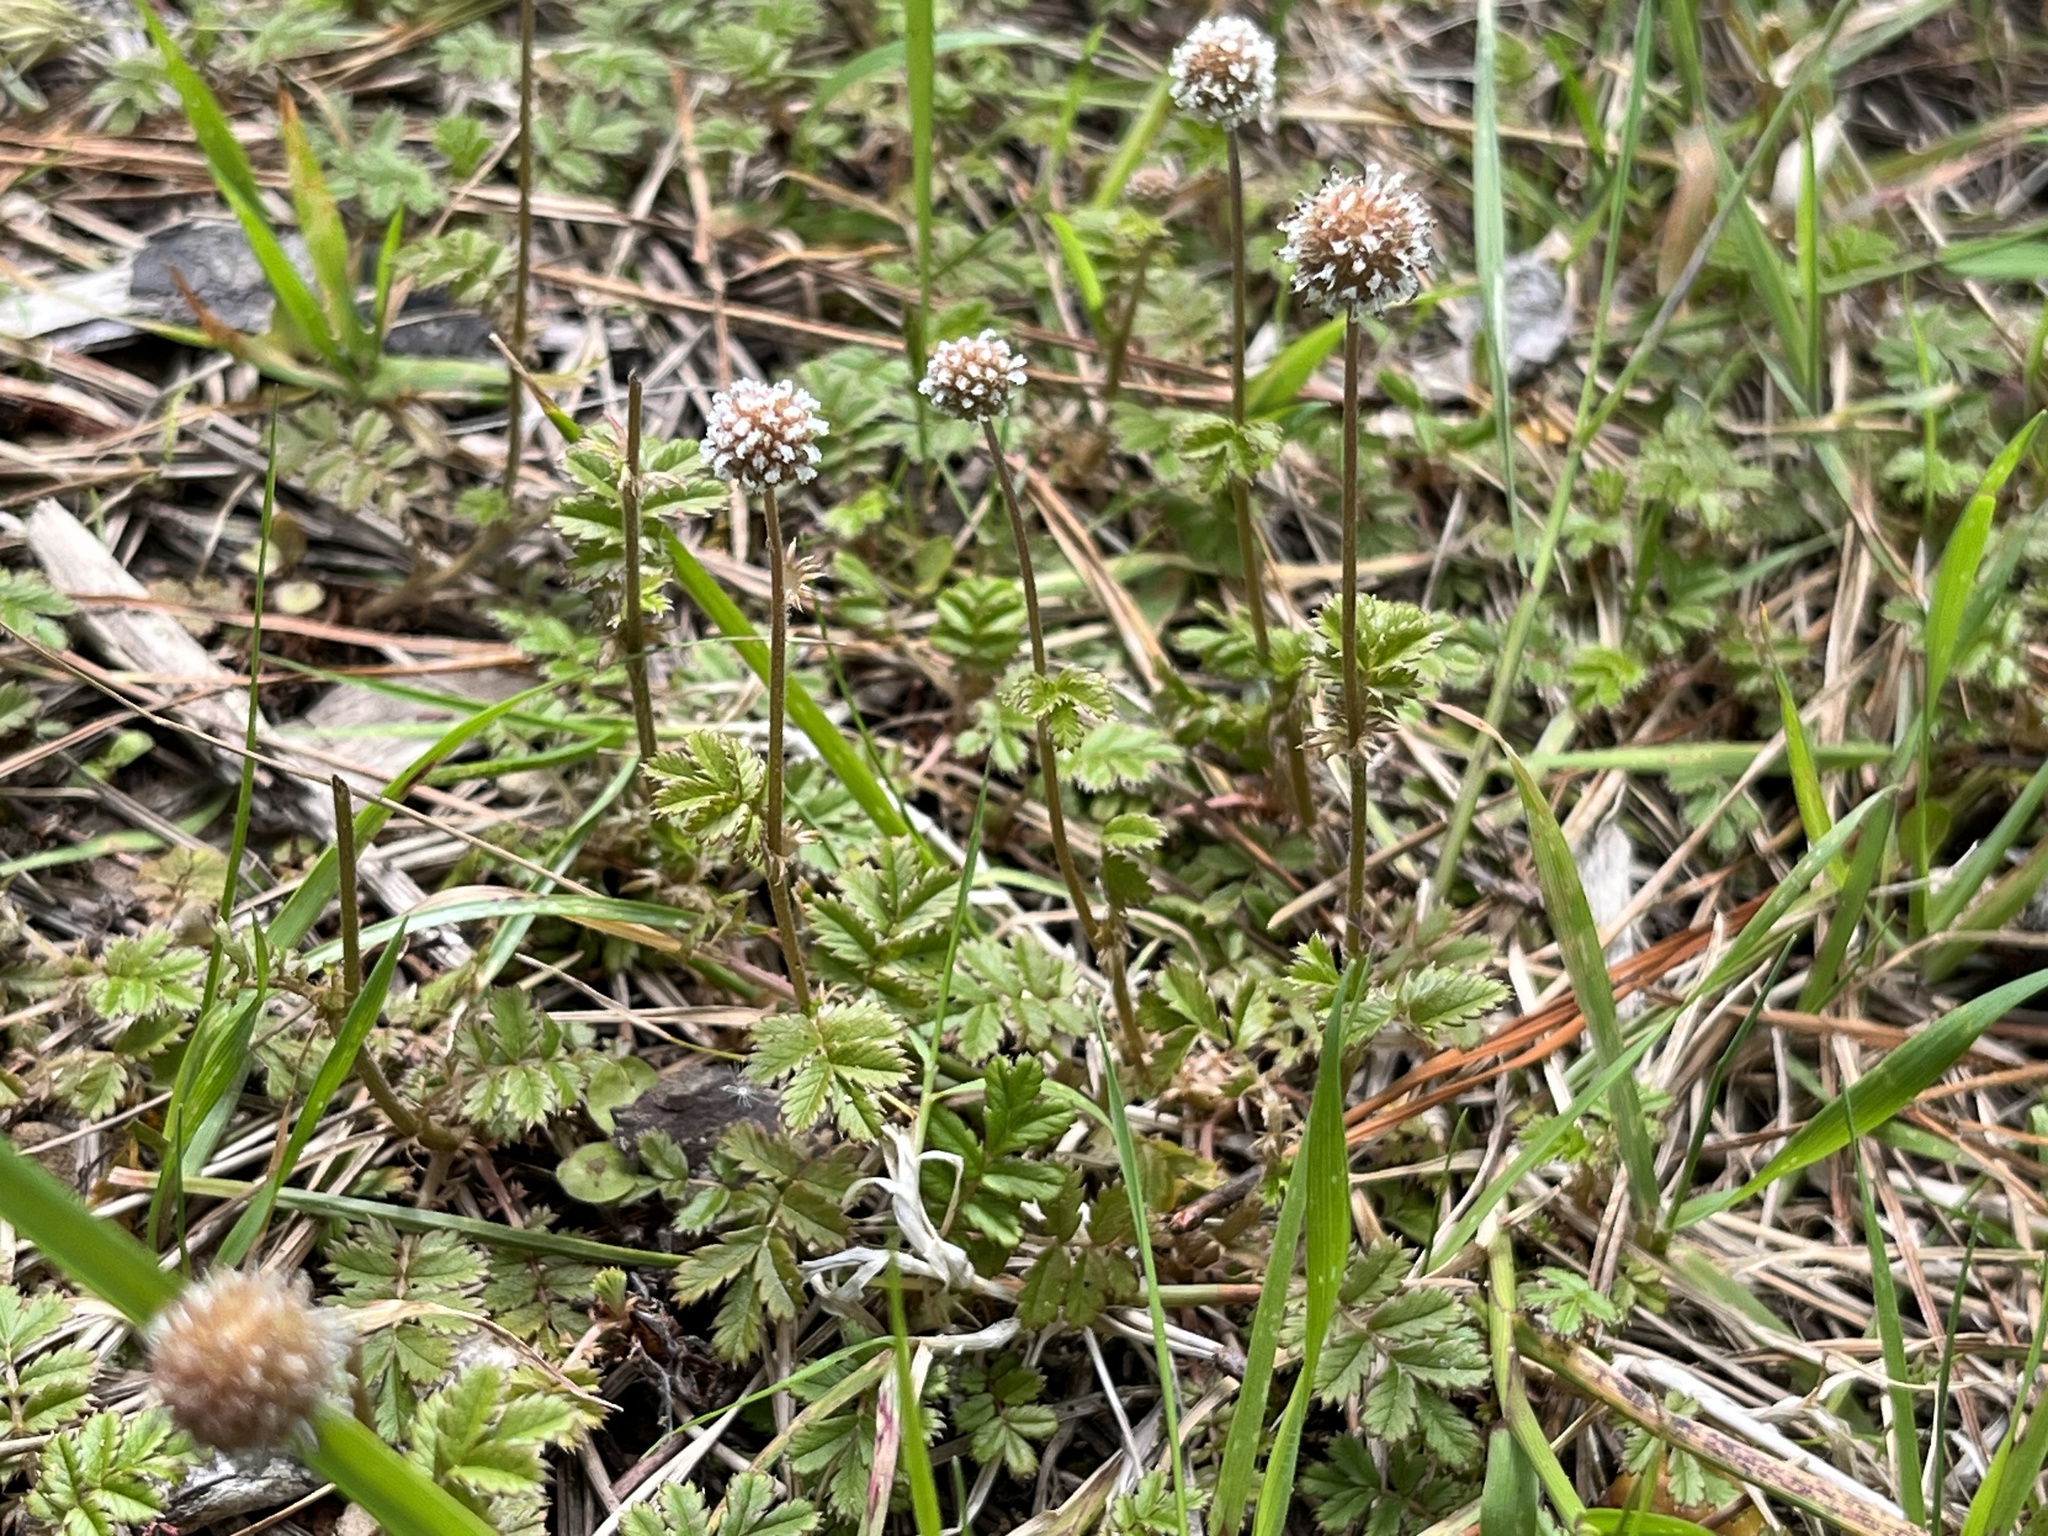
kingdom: Plantae
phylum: Tracheophyta
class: Magnoliopsida
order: Rosales
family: Rosaceae
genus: Acaena
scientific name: Acaena anserinifolia
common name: Bronze pirri-pirri-bur
